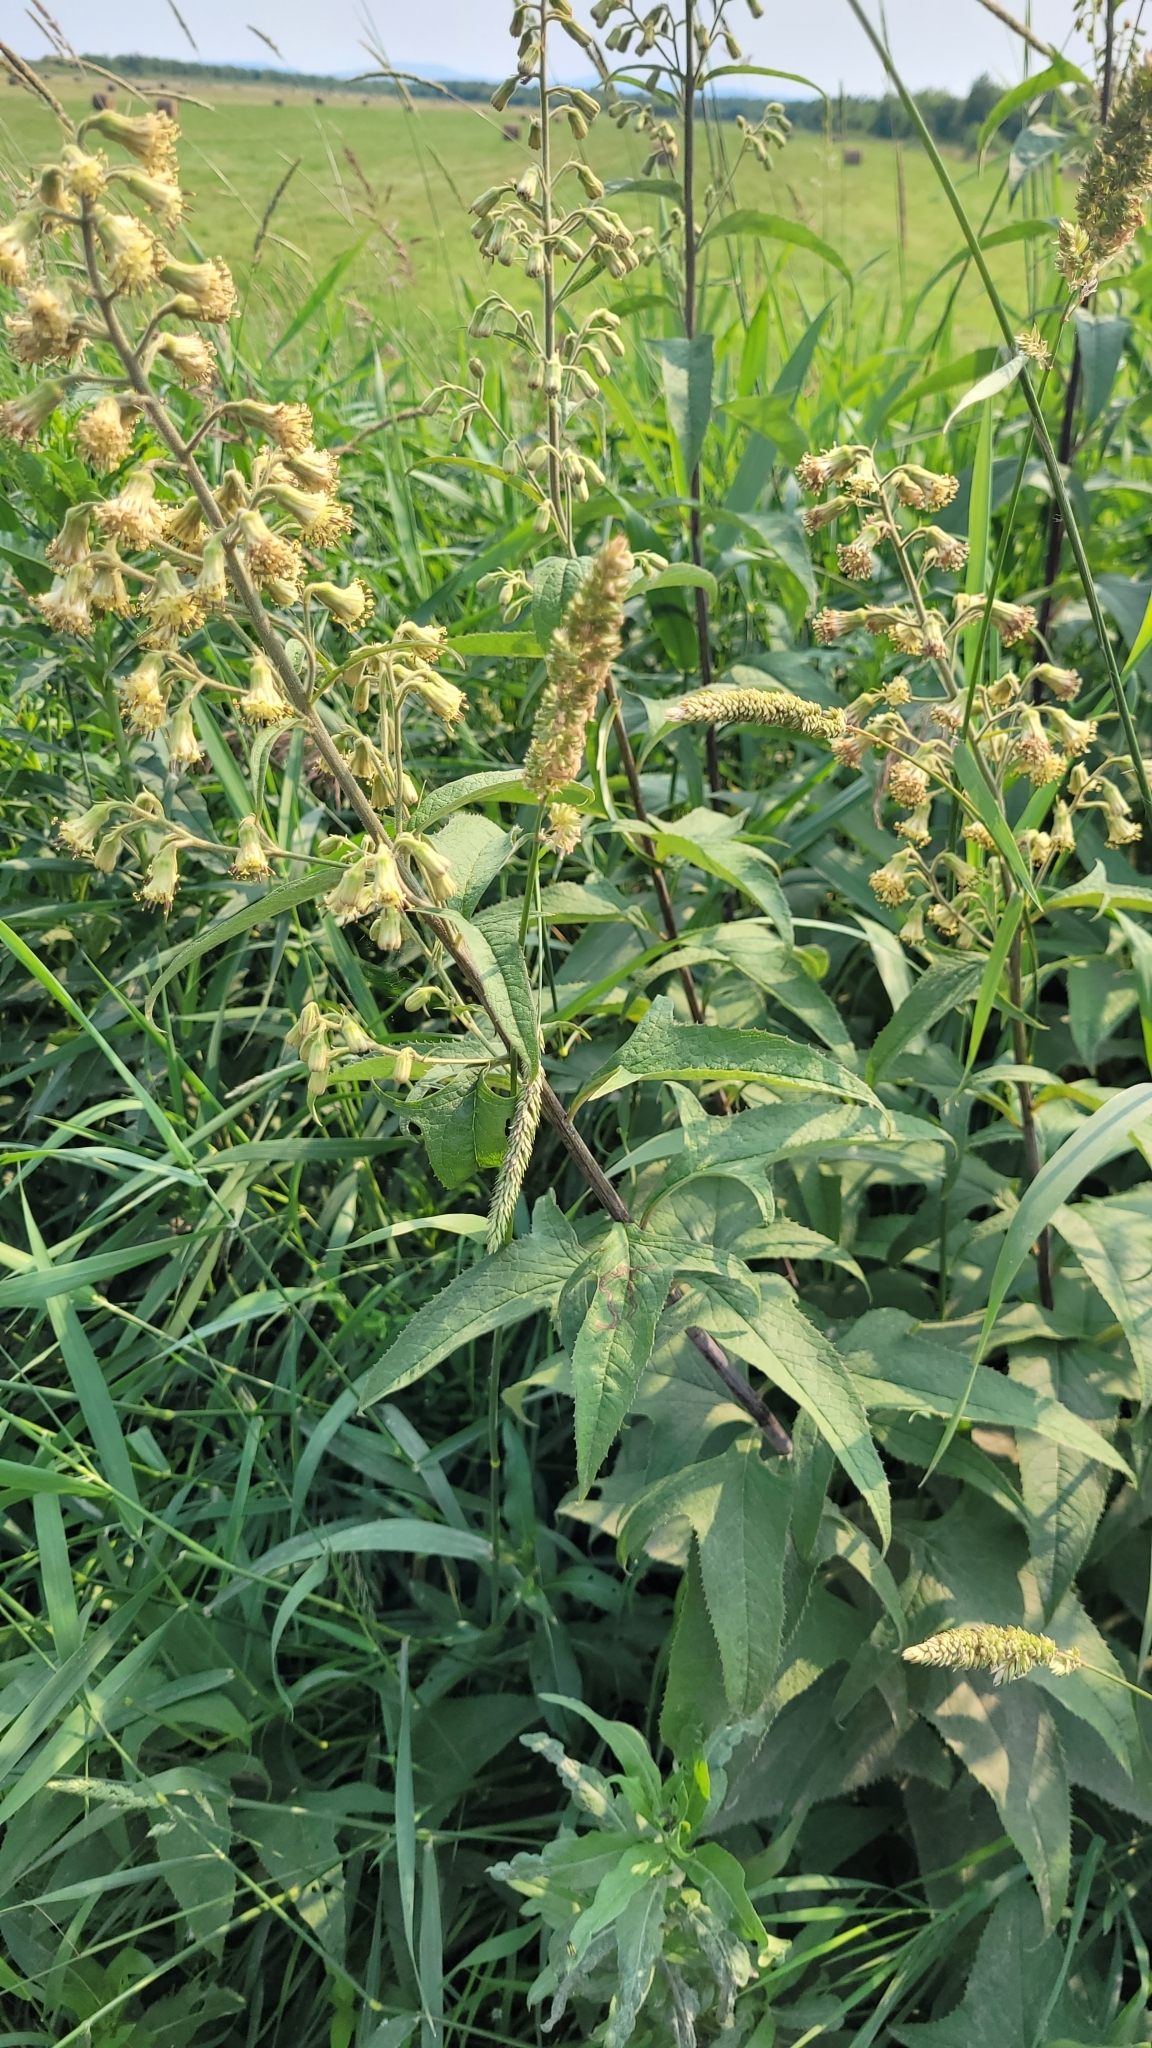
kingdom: Plantae
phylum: Tracheophyta
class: Magnoliopsida
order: Asterales
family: Asteraceae
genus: Parasenecio
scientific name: Parasenecio hastatus
